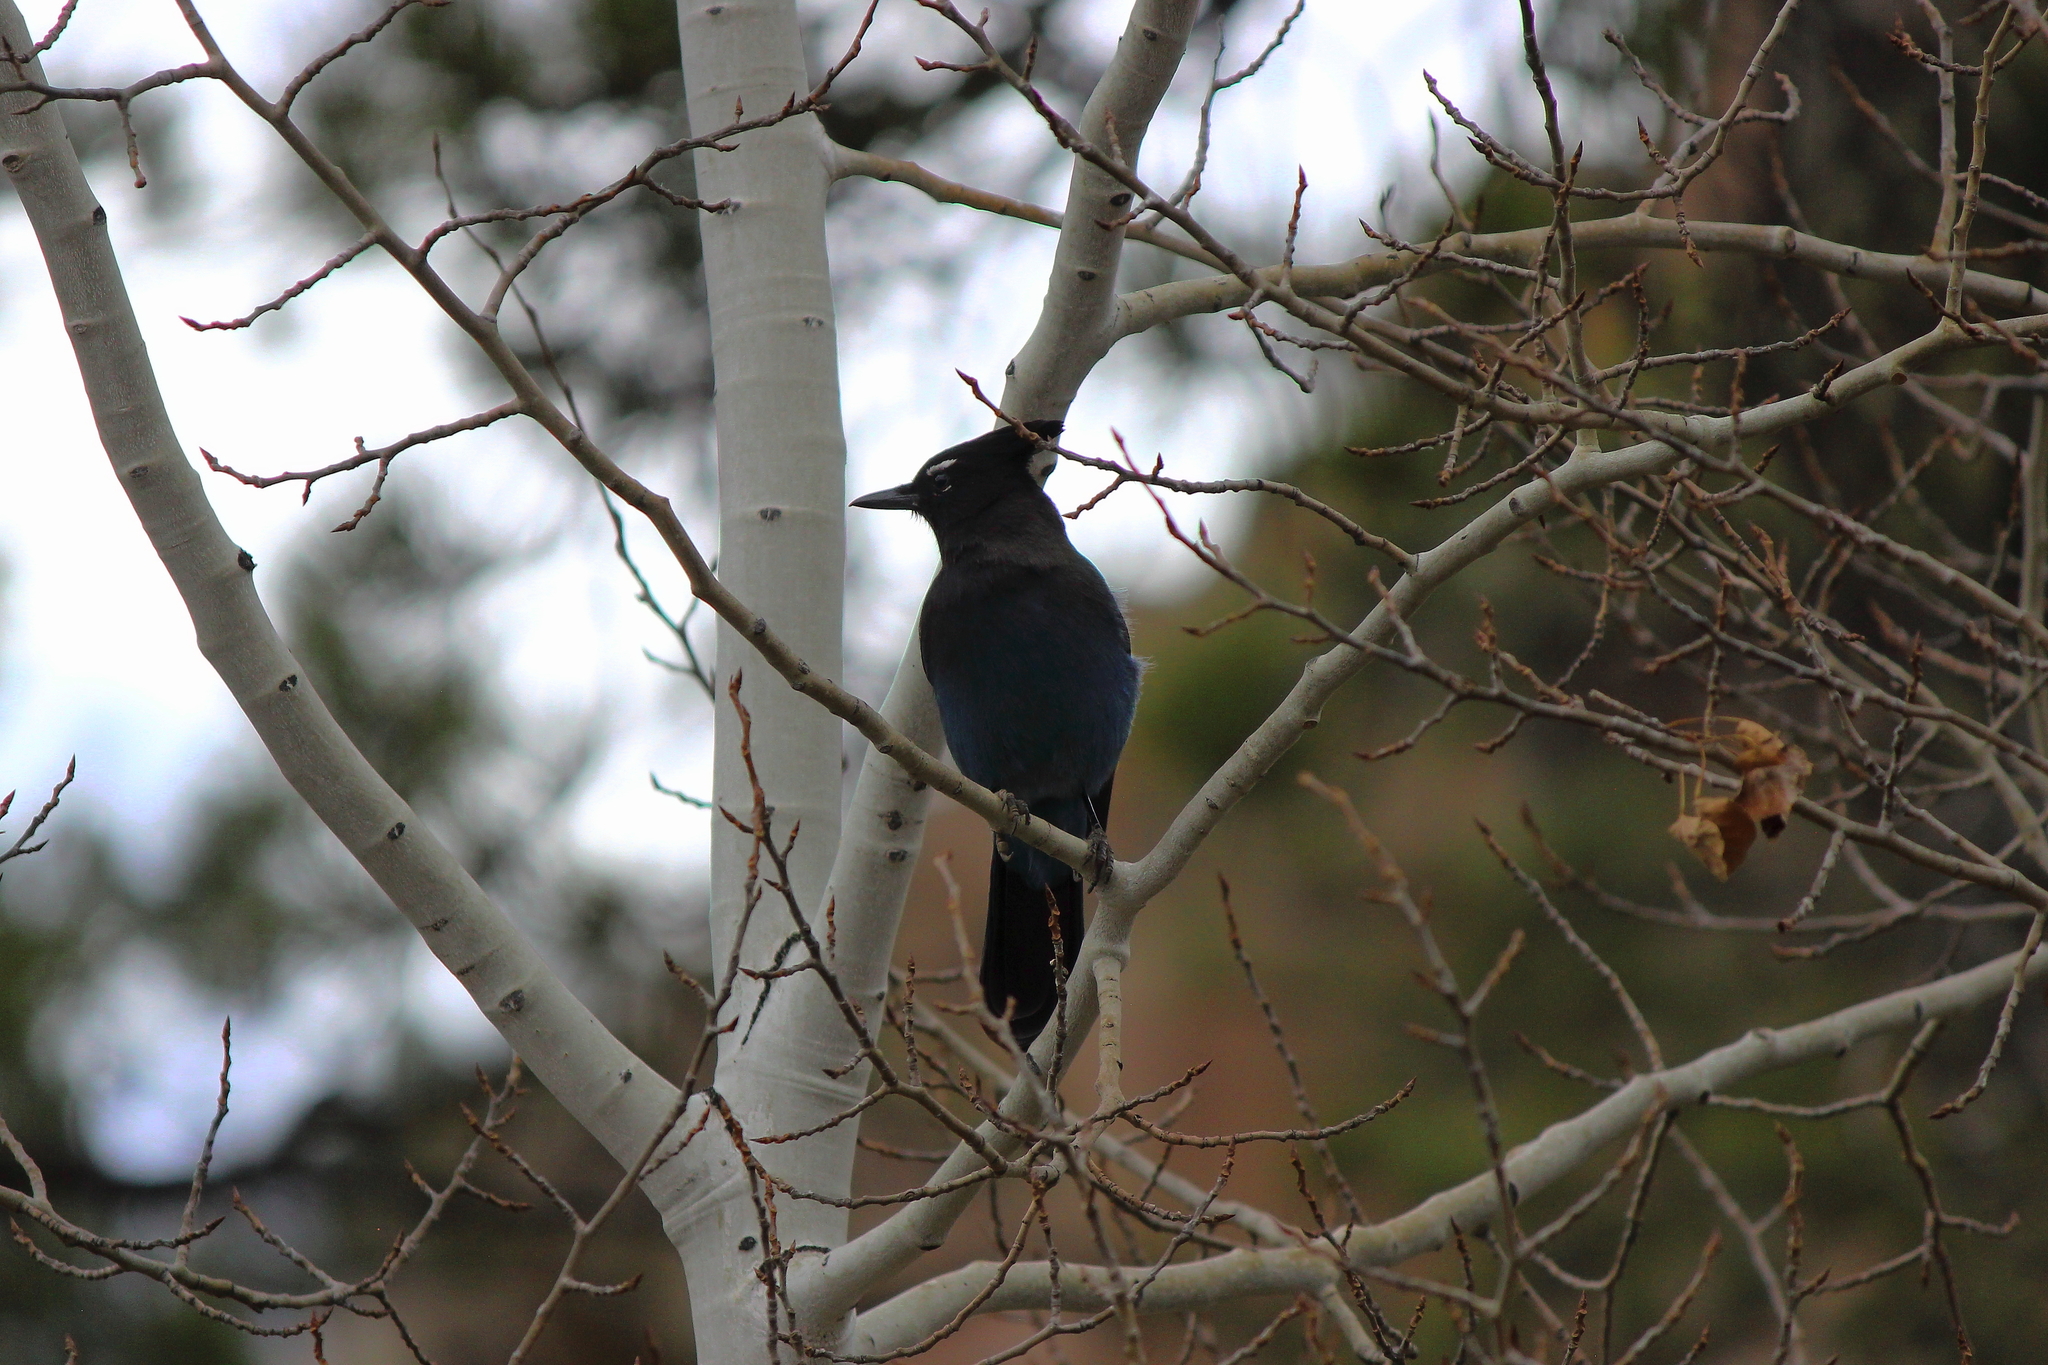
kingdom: Animalia
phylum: Chordata
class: Aves
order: Passeriformes
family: Corvidae
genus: Cyanocitta
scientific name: Cyanocitta stelleri
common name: Steller's jay
